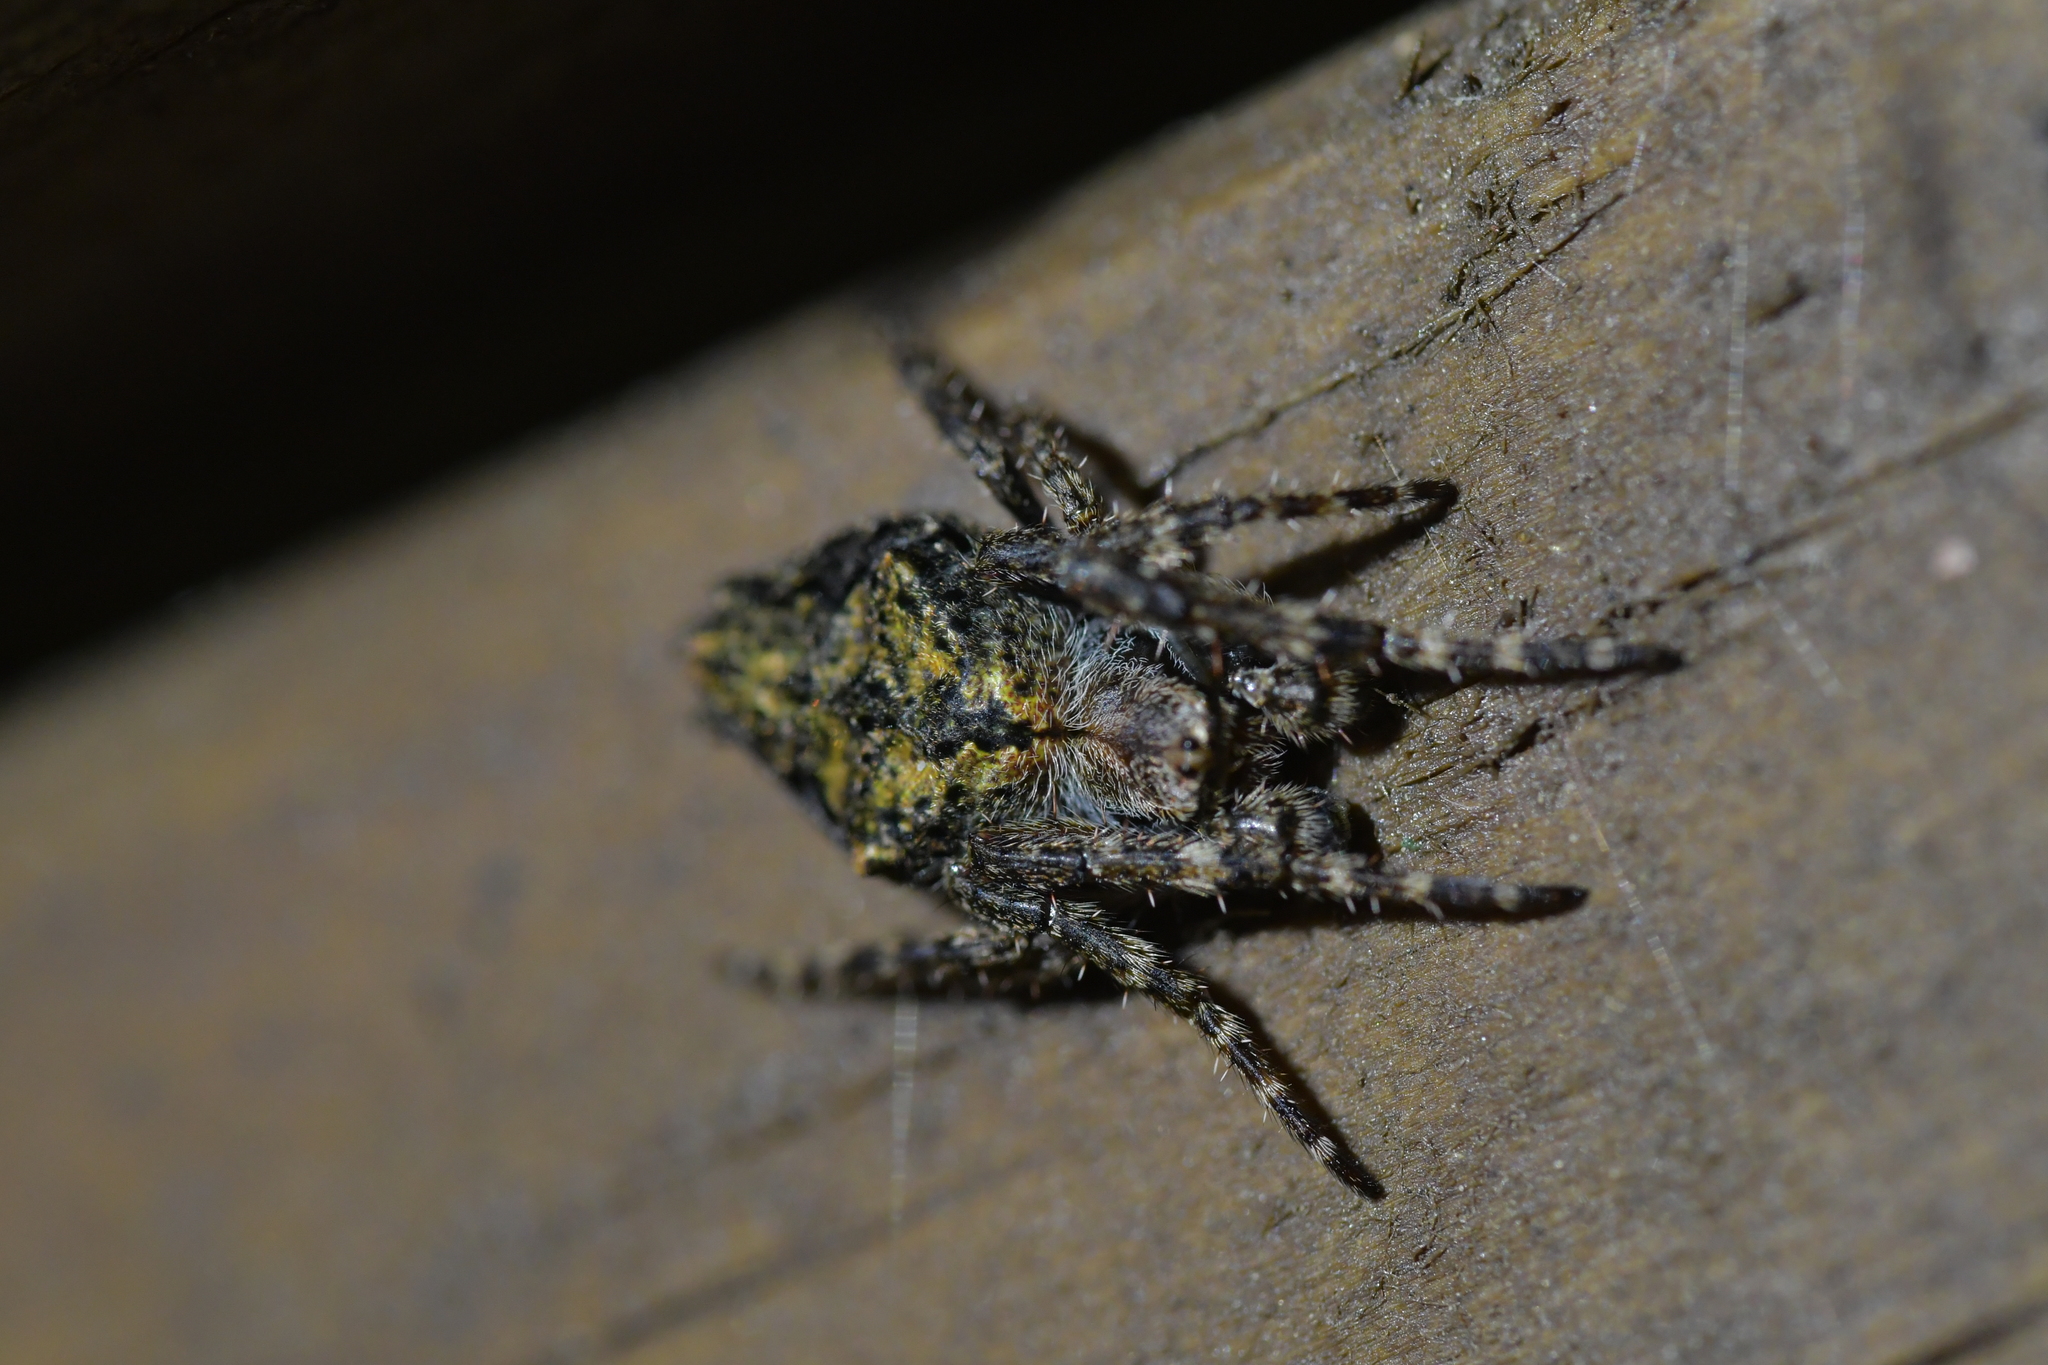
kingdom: Animalia
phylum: Arthropoda
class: Arachnida
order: Araneae
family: Araneidae
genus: Eriophora
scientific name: Eriophora pustulosa
